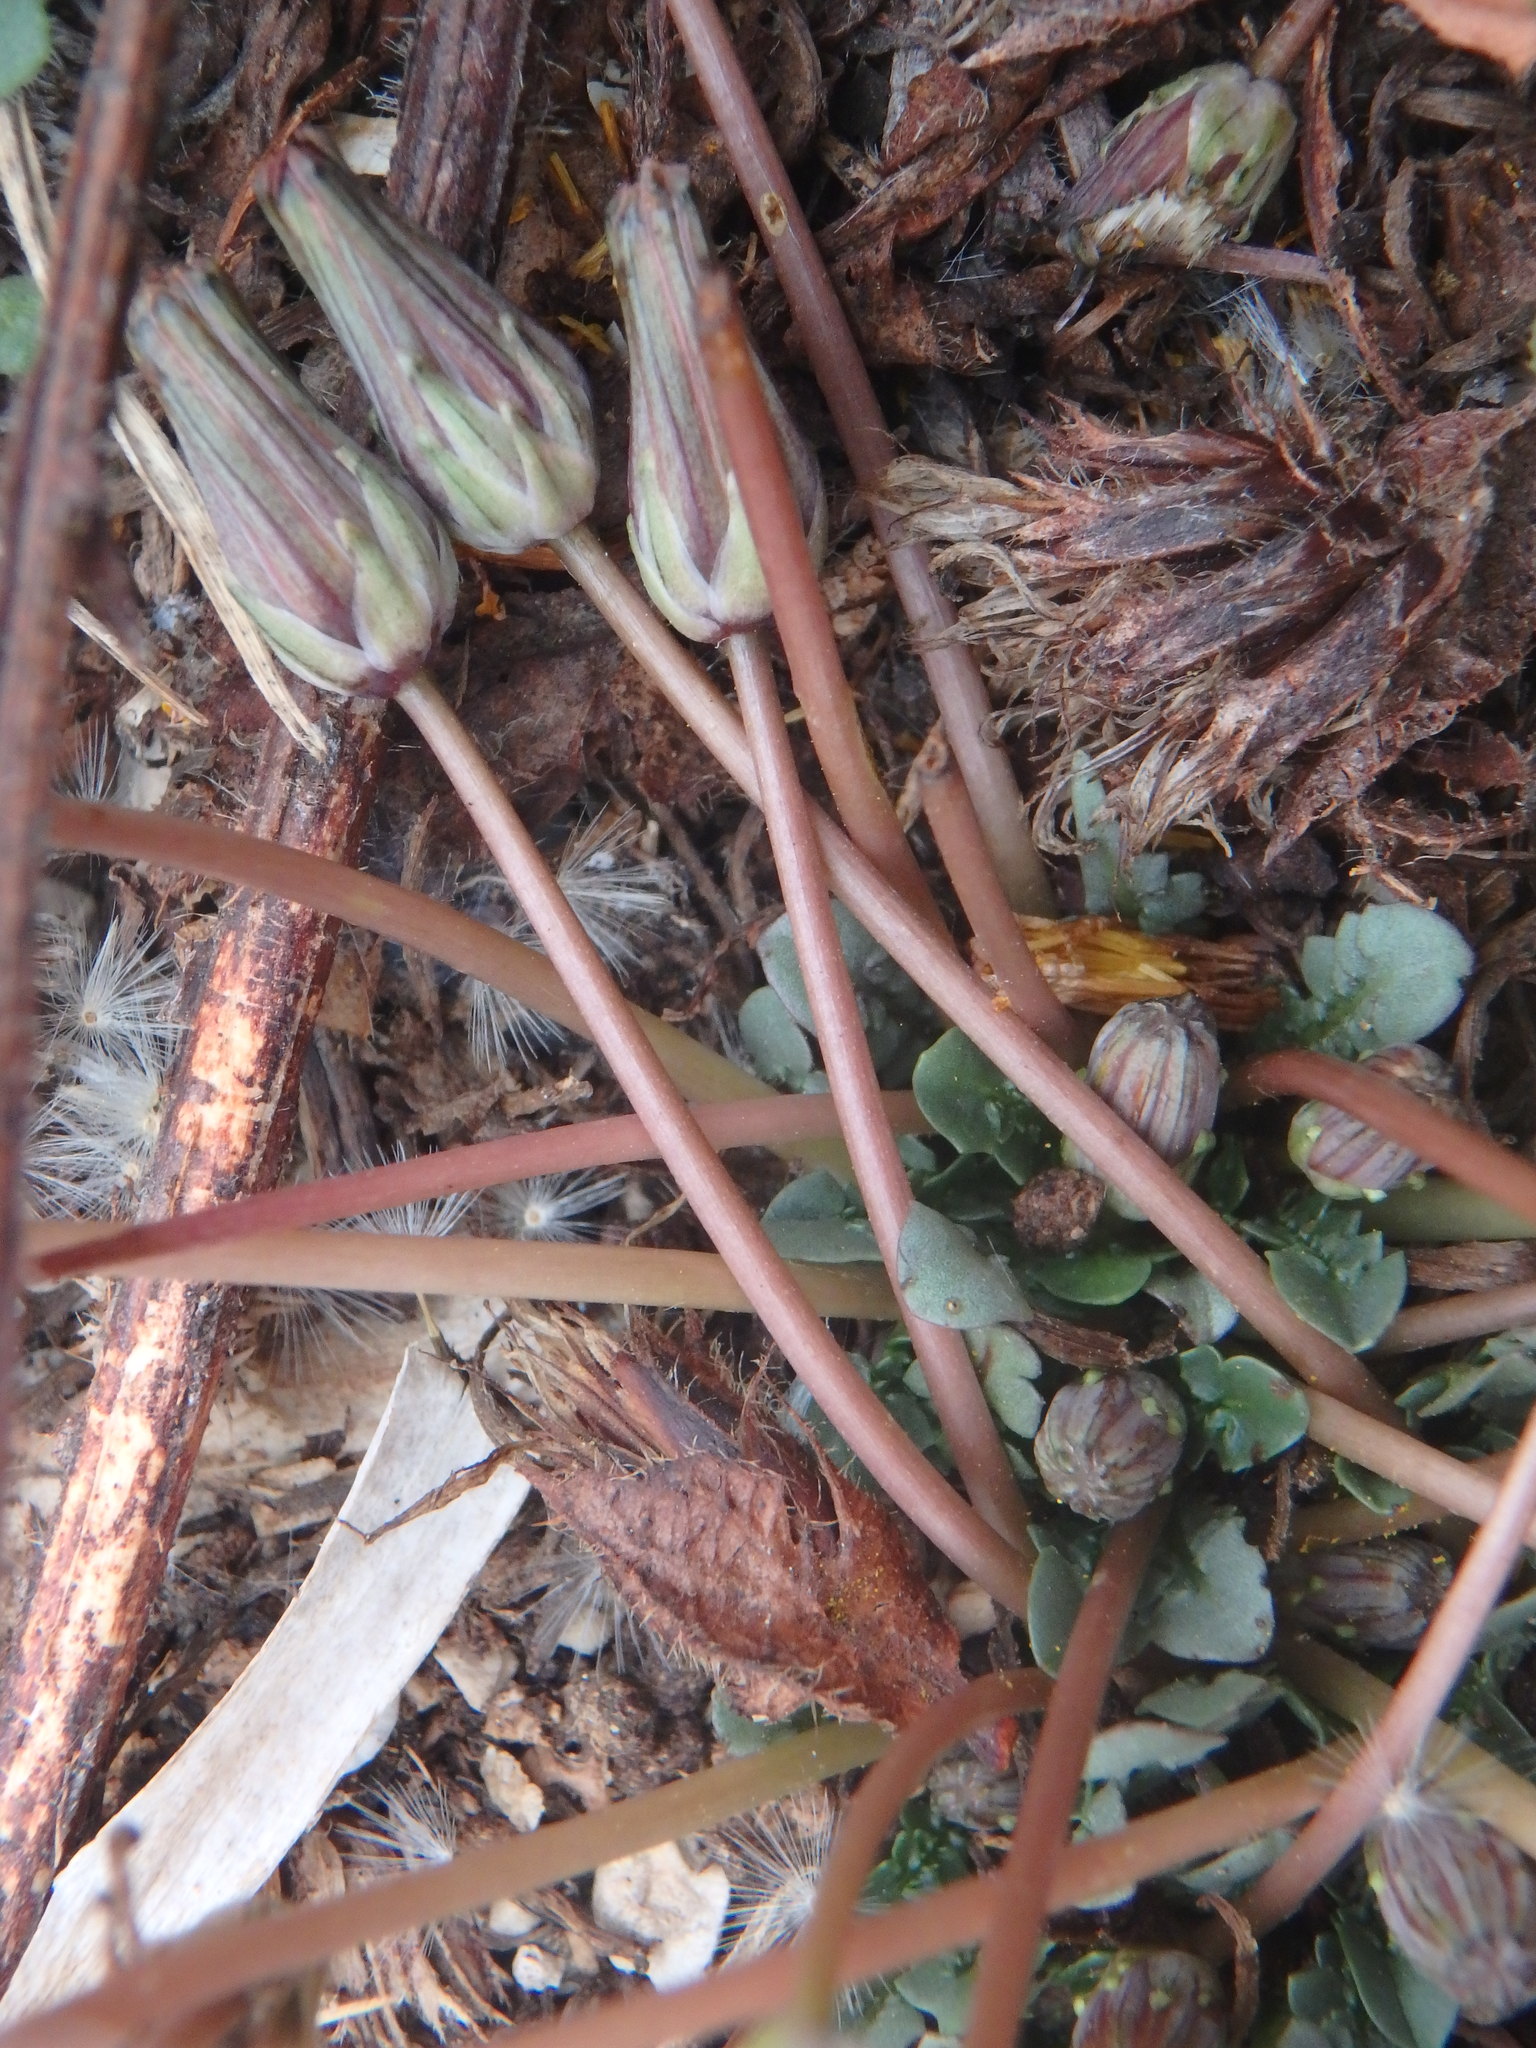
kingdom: Plantae
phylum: Tracheophyta
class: Magnoliopsida
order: Asterales
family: Asteraceae
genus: Taraxacum
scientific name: Taraxacum aphrogenes
